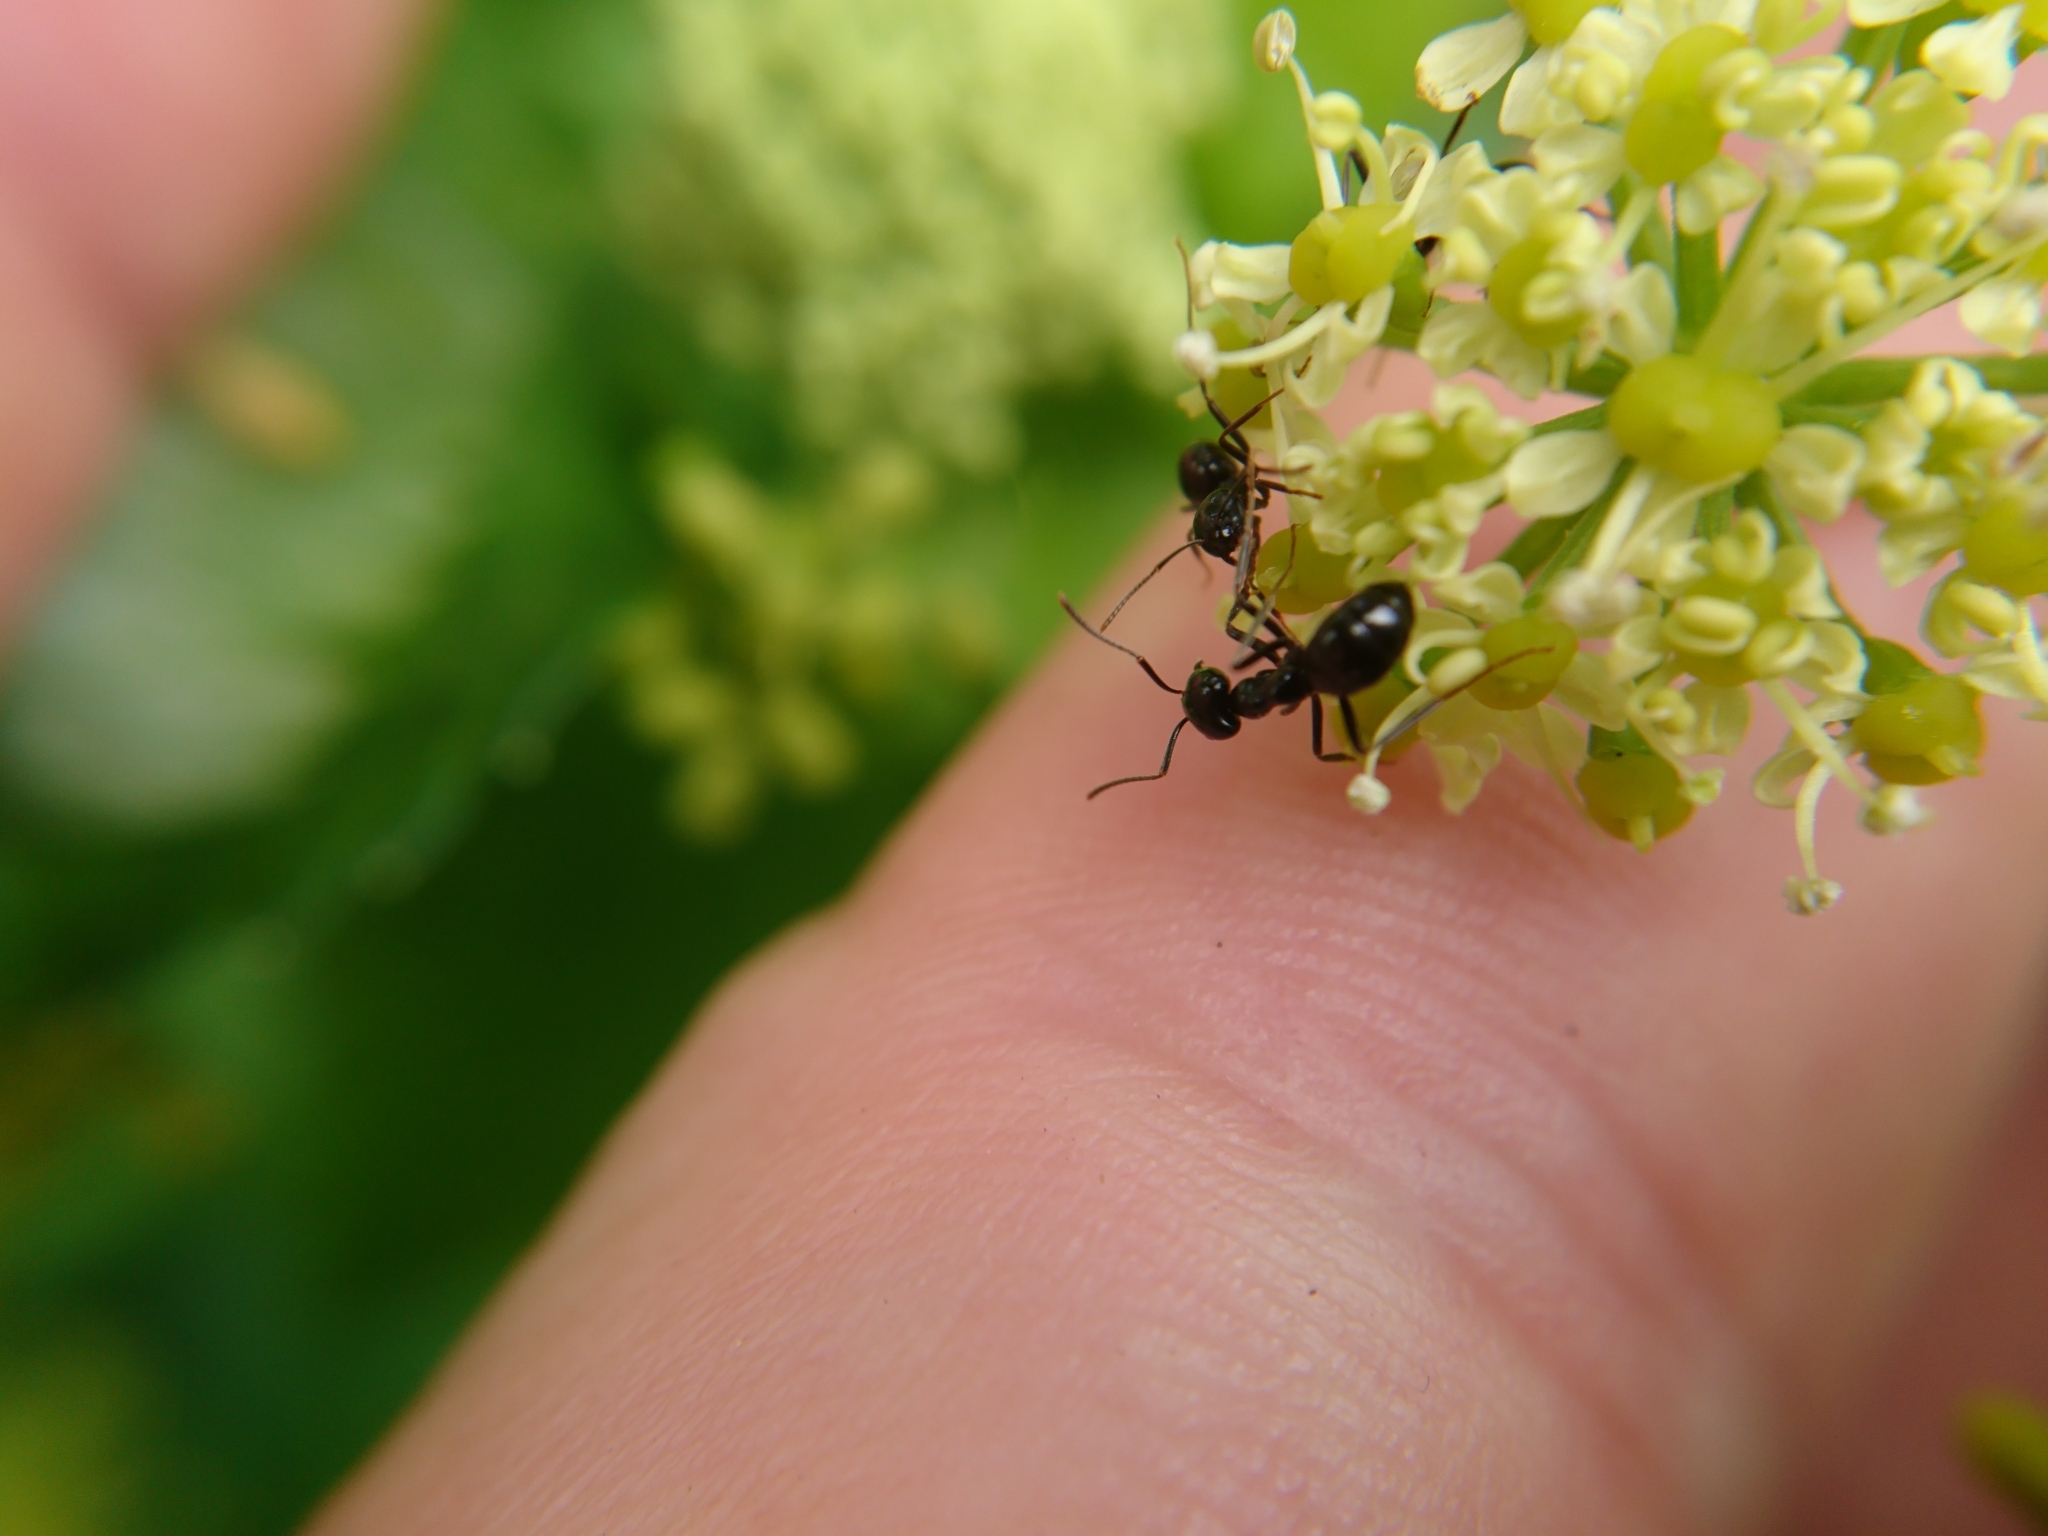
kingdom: Animalia
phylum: Arthropoda
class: Insecta
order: Hymenoptera
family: Formicidae
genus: Lasius
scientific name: Lasius fuliginosus
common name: Jet ant
